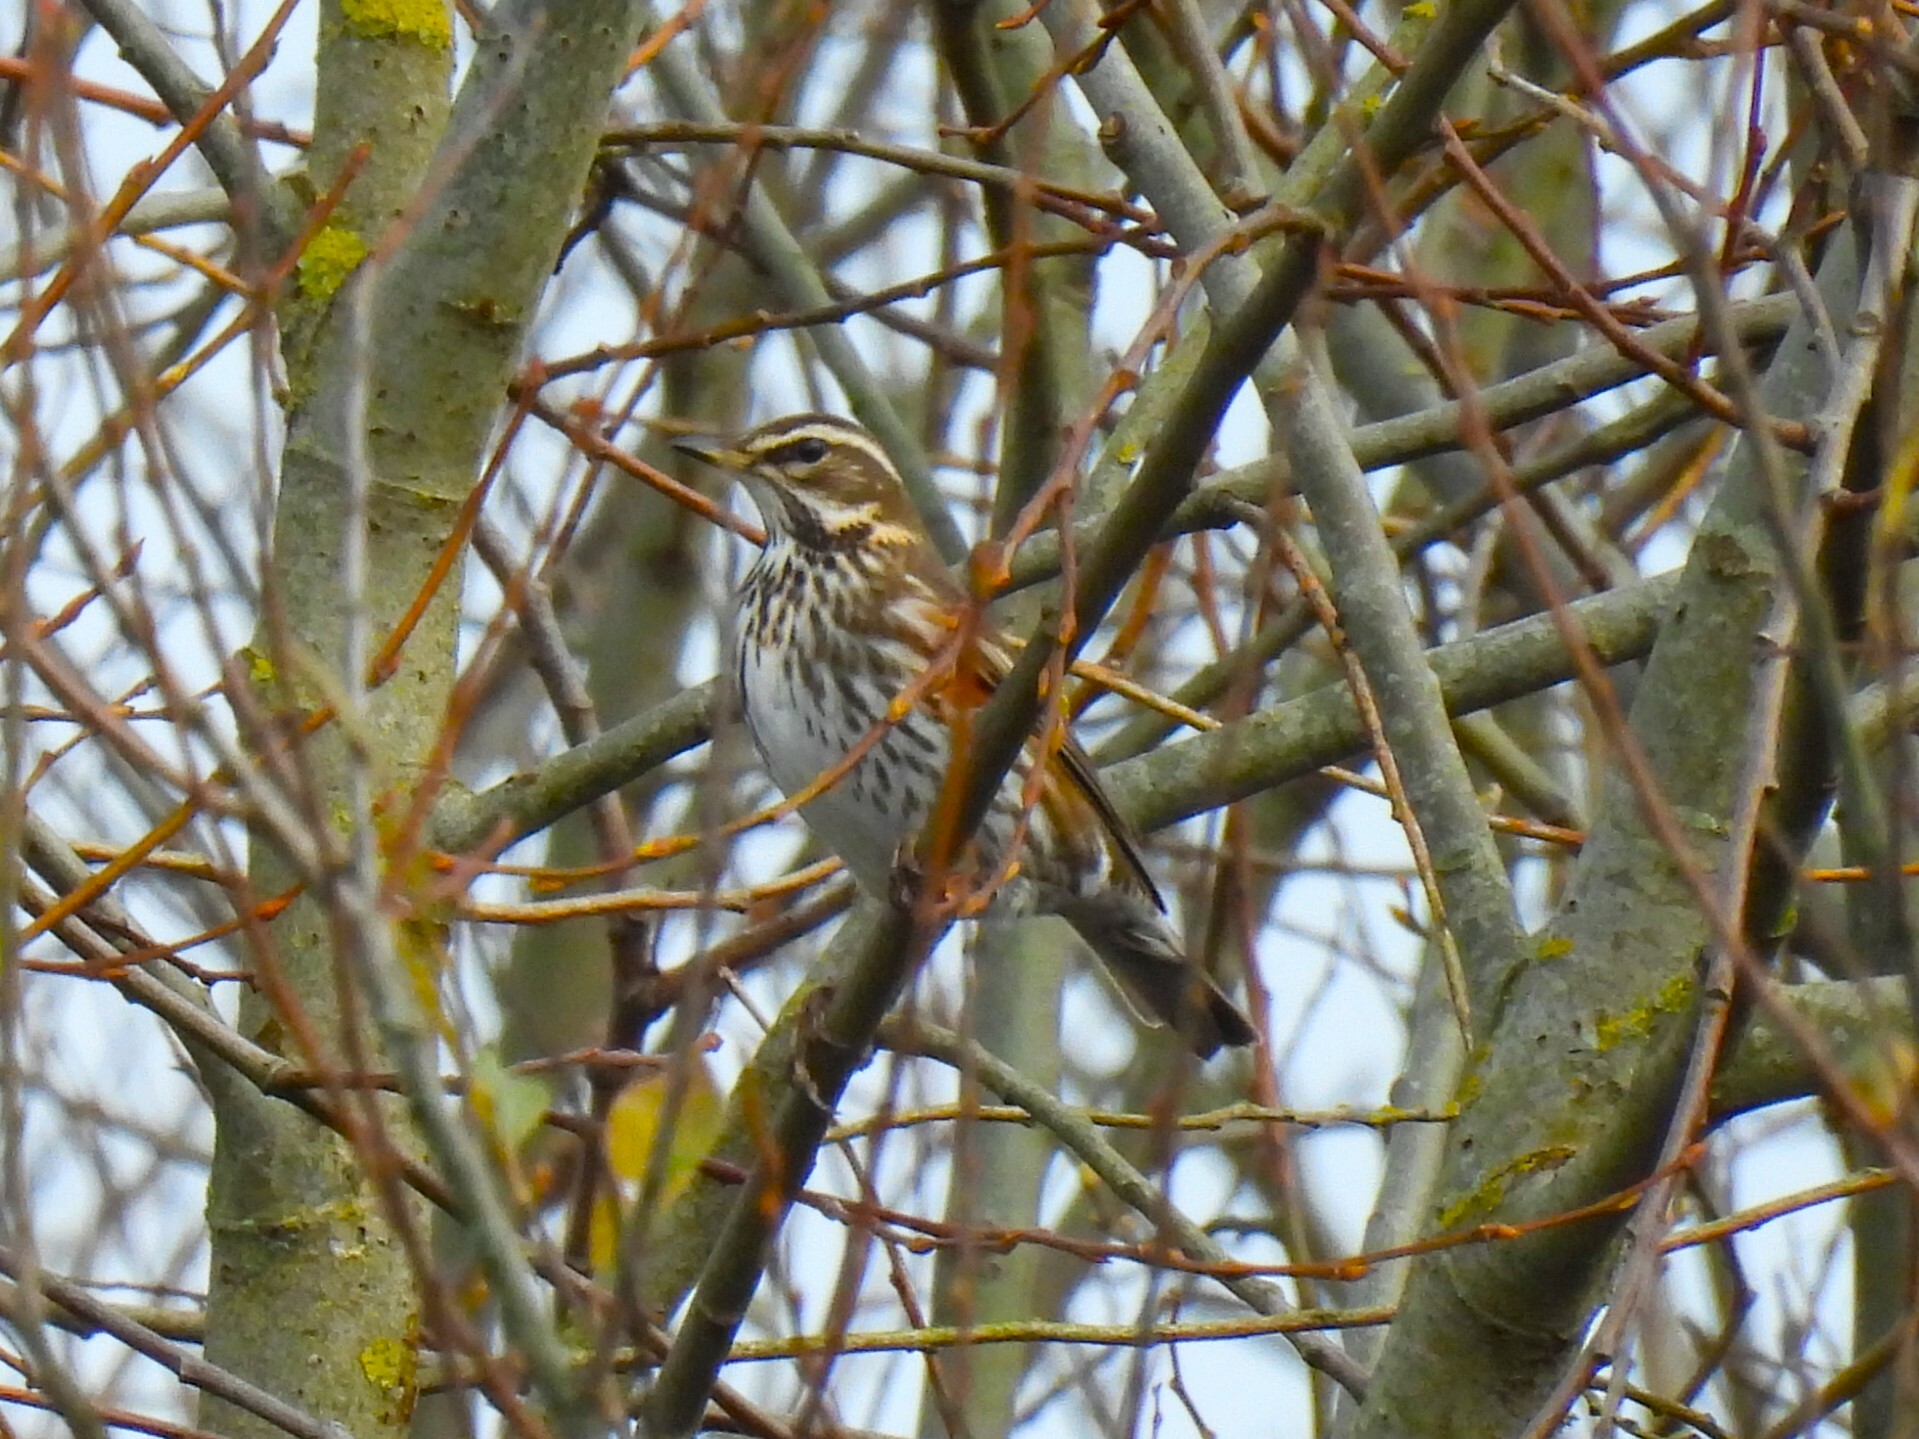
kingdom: Animalia
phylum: Chordata
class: Aves
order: Passeriformes
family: Turdidae
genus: Turdus
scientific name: Turdus iliacus
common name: Redwing
